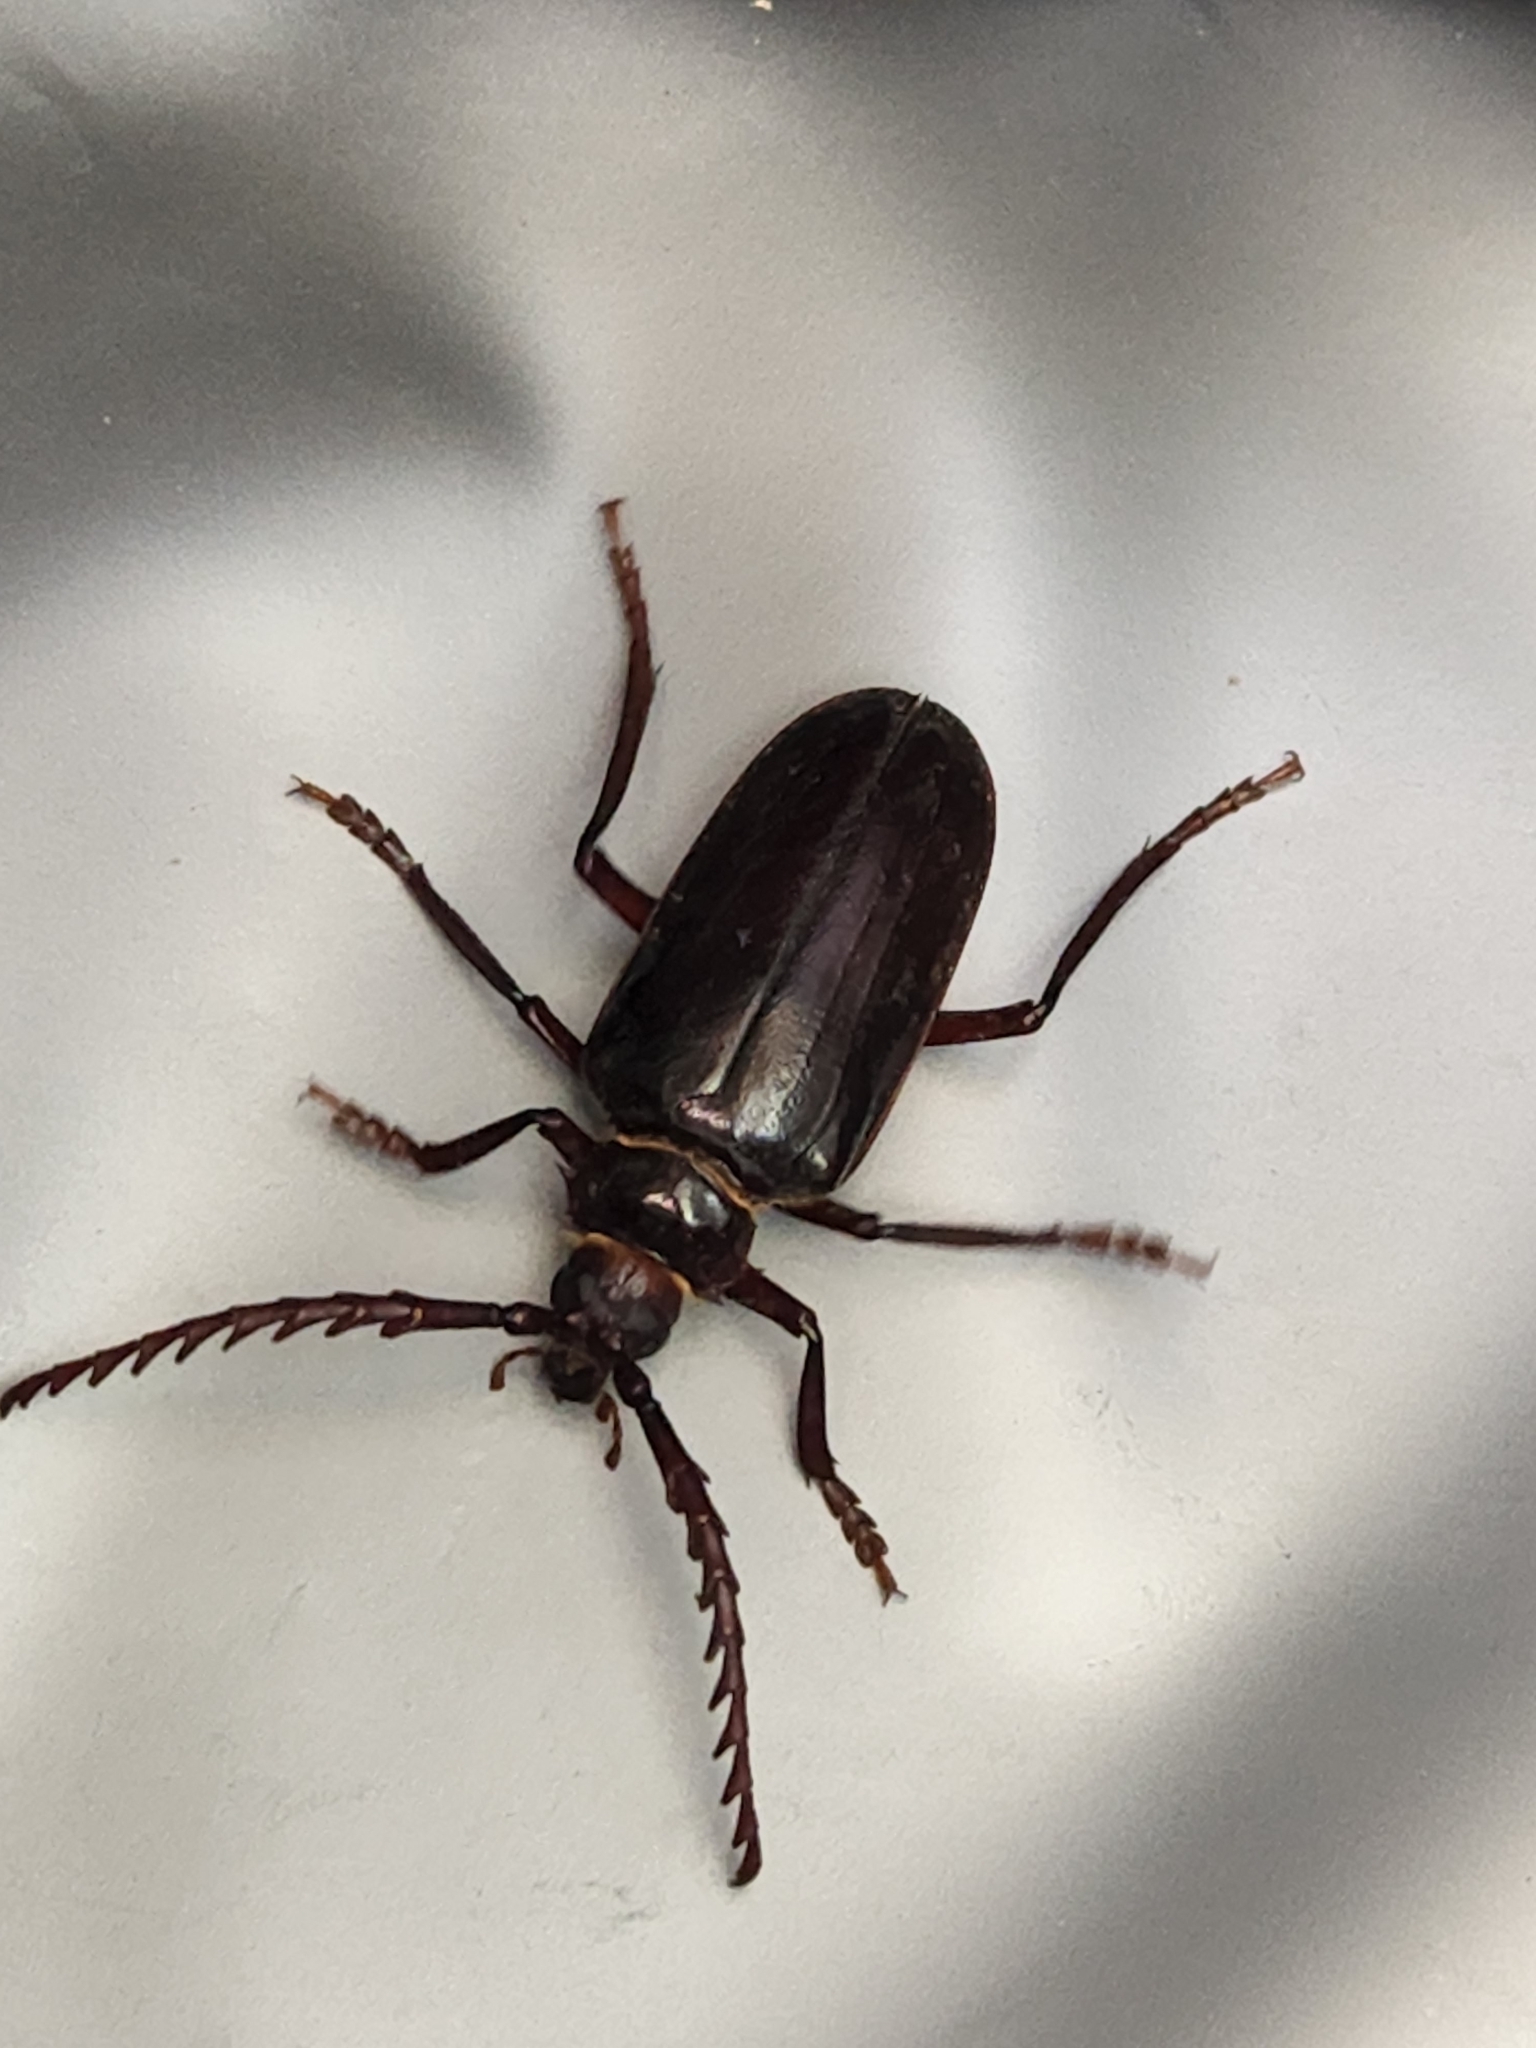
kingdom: Animalia
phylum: Arthropoda
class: Insecta
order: Coleoptera
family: Cerambycidae
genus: Prionus
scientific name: Prionus californicus
